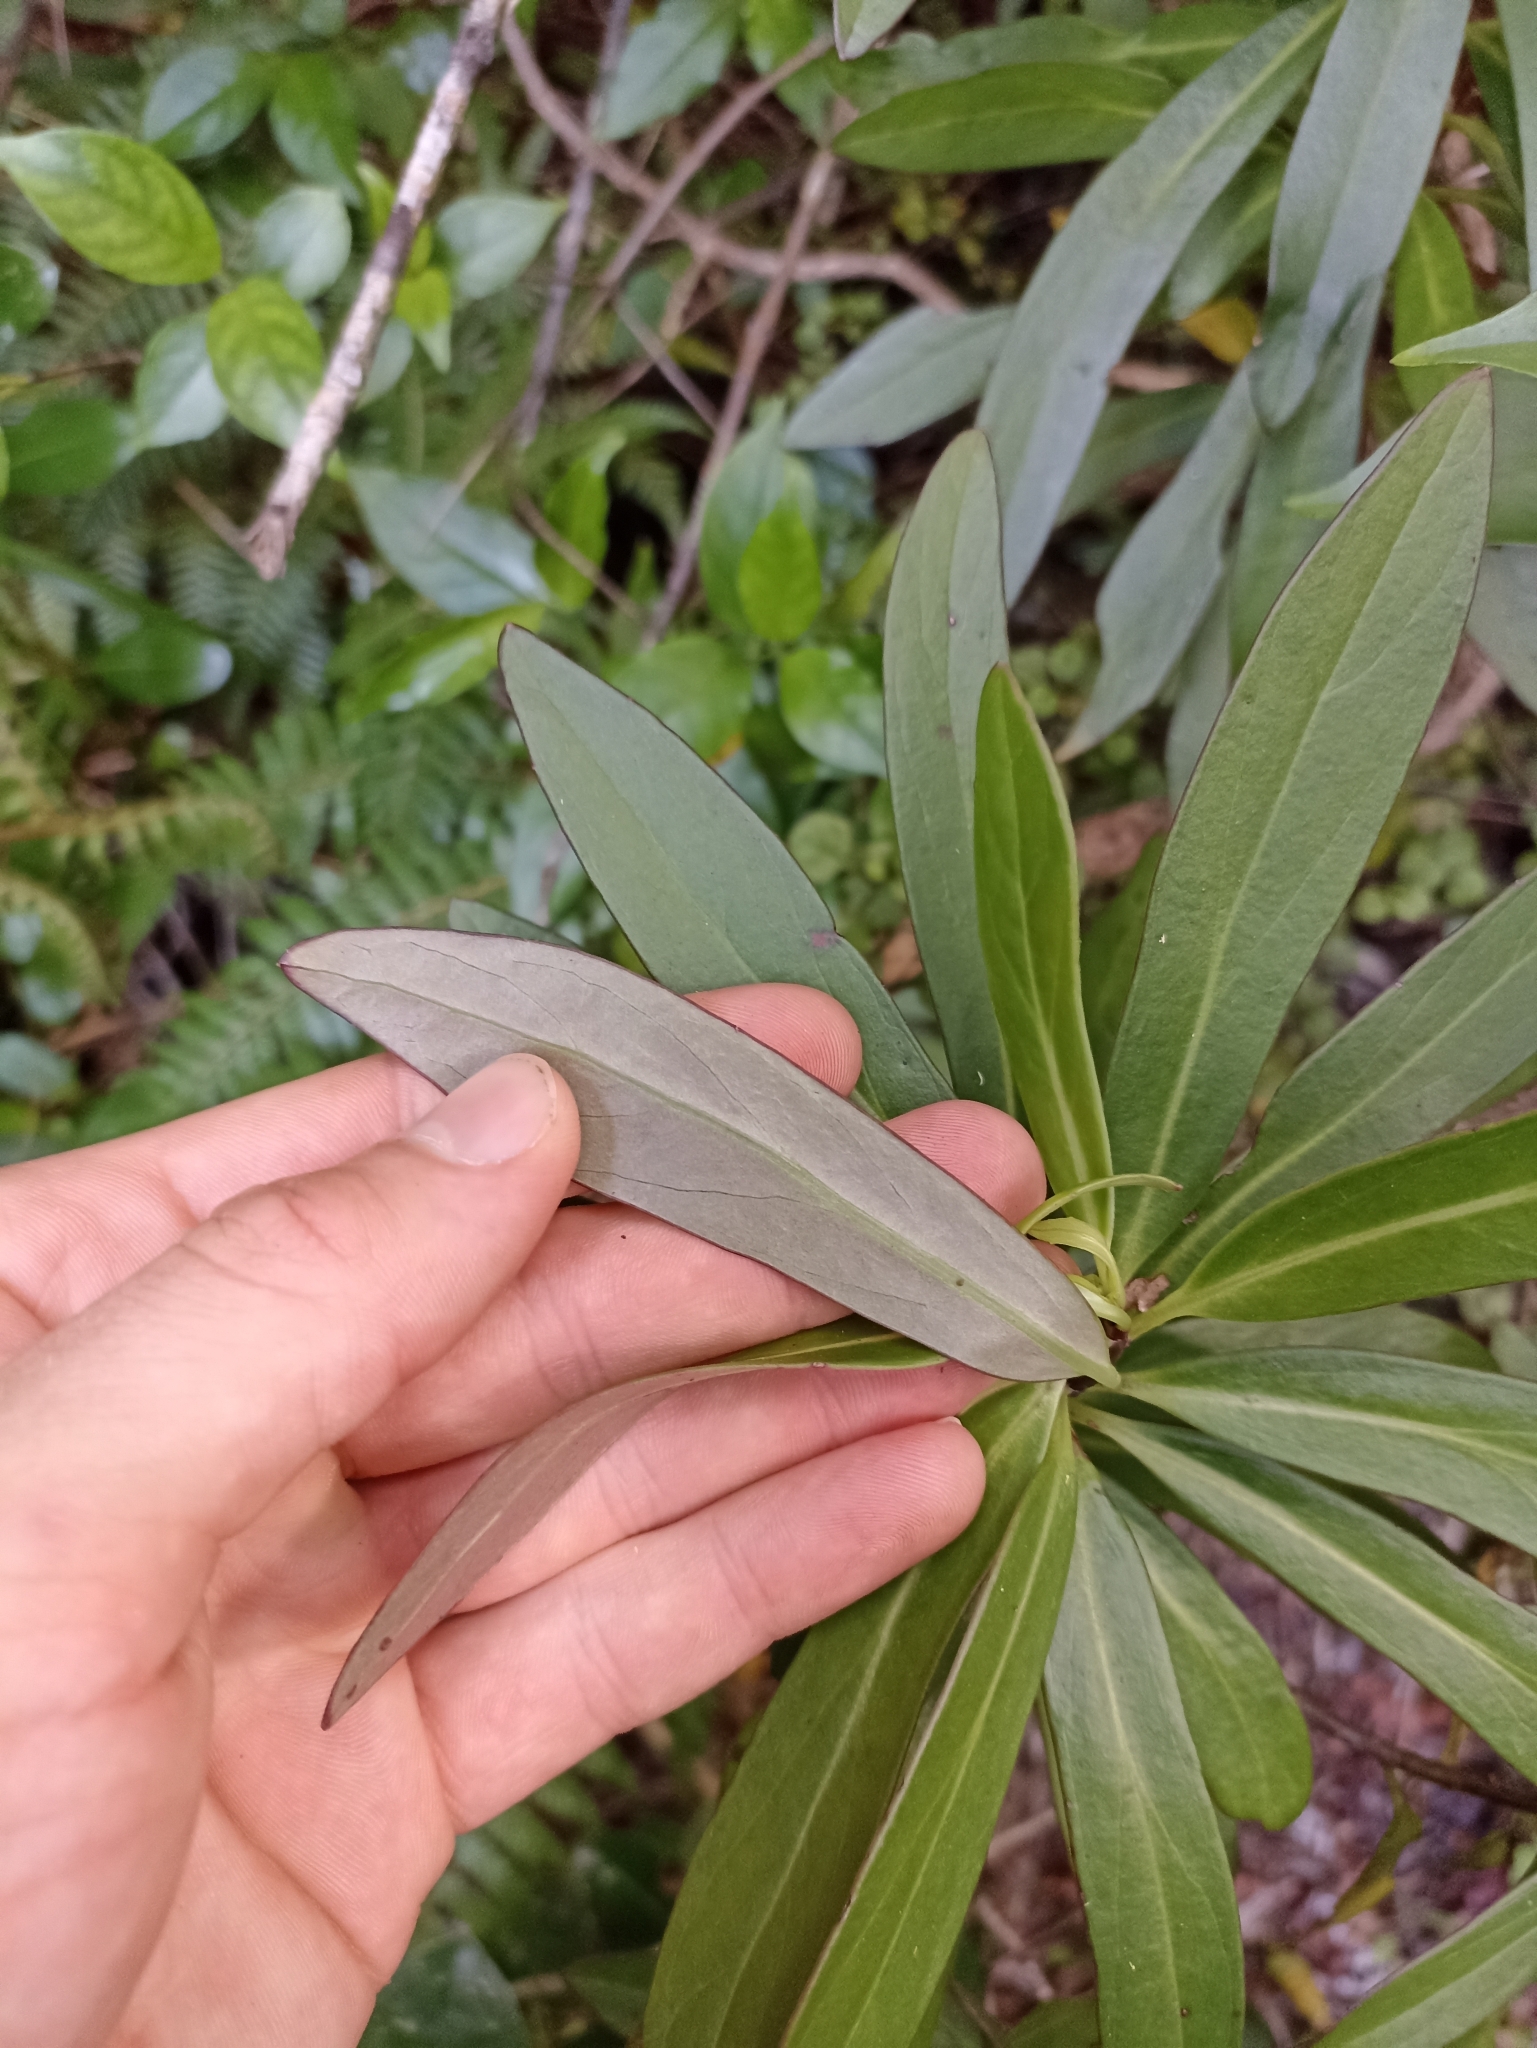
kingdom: Plantae
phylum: Tracheophyta
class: Magnoliopsida
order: Asterales
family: Asteraceae
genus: Brachyglottis
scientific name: Brachyglottis kirkii
